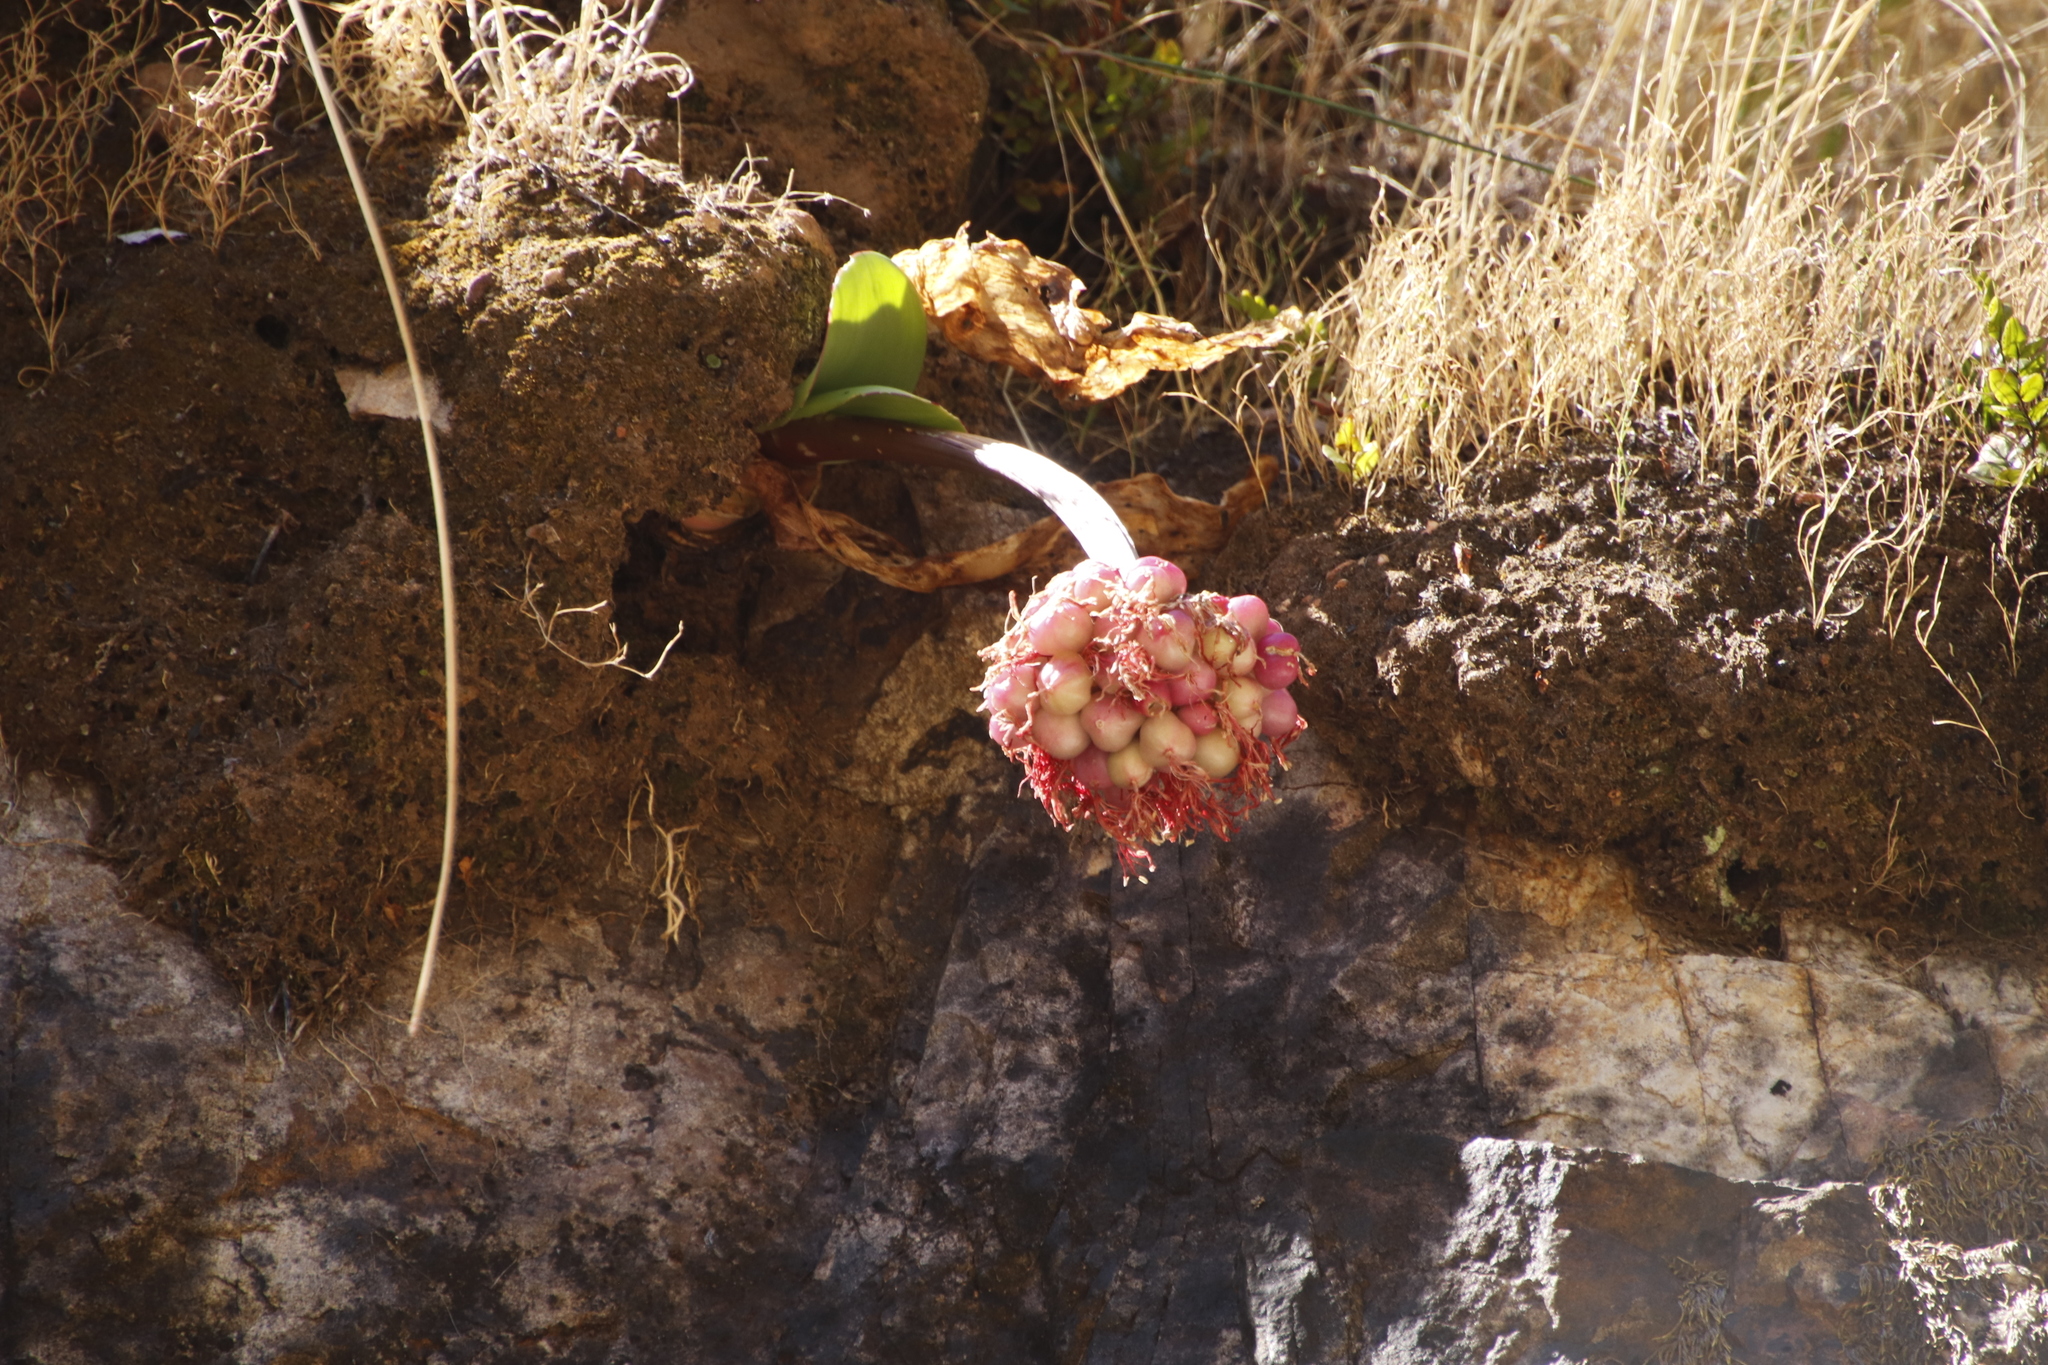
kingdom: Plantae
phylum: Tracheophyta
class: Liliopsida
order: Asparagales
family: Amaryllidaceae
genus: Haemanthus
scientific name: Haemanthus sanguineus
